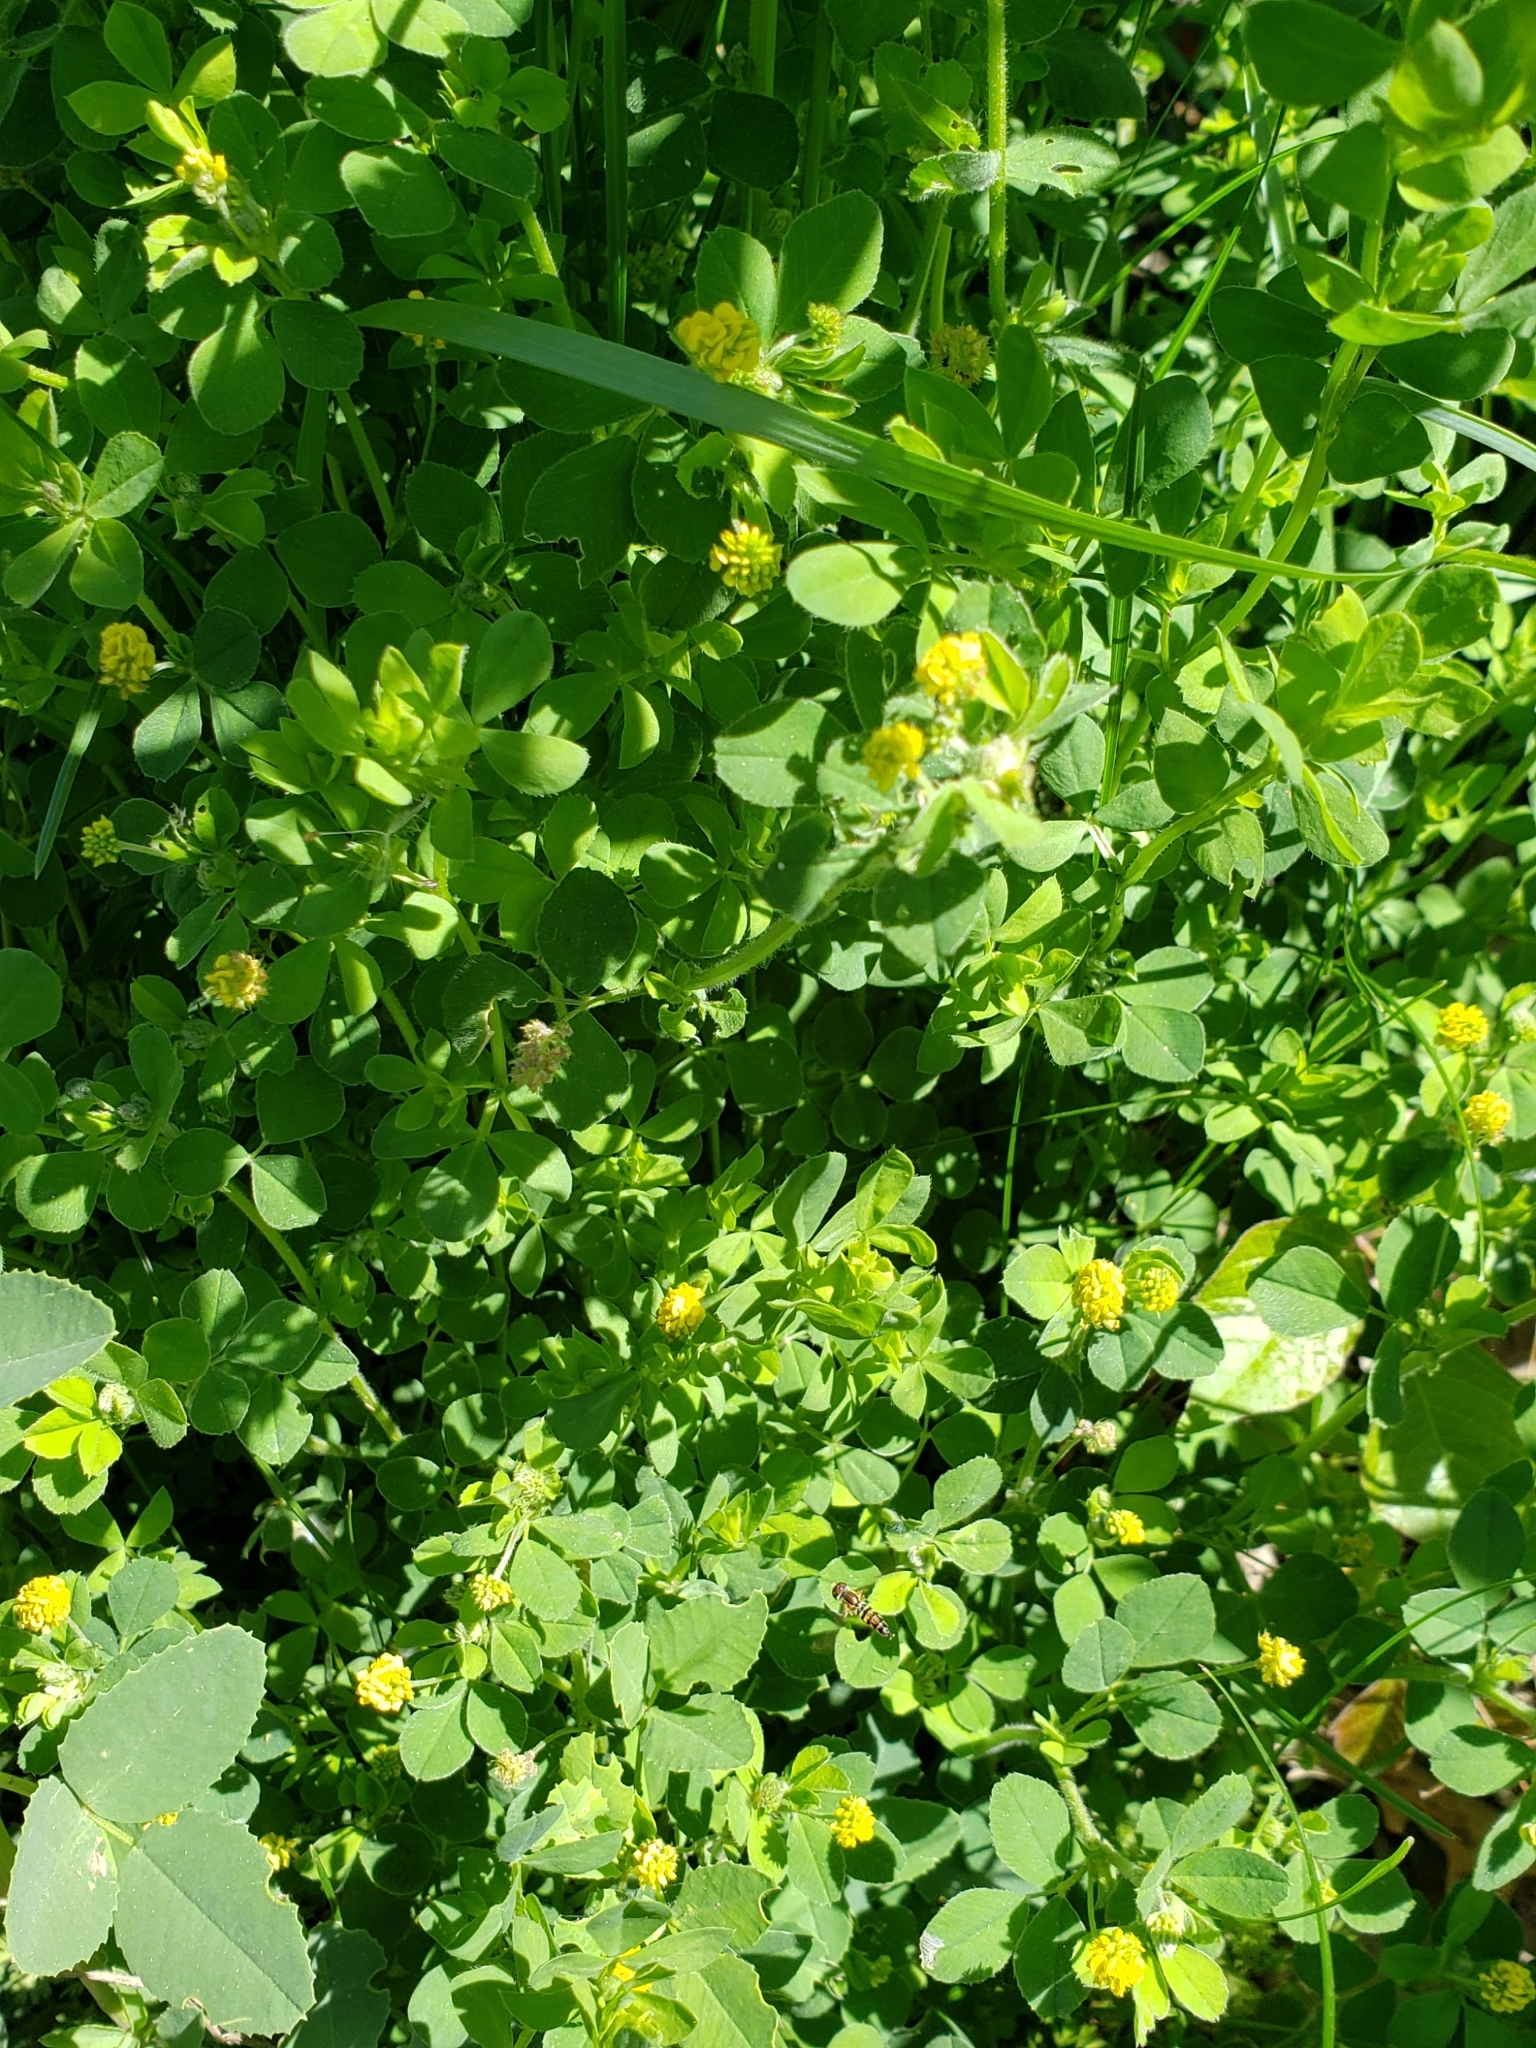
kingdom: Plantae
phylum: Tracheophyta
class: Magnoliopsida
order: Fabales
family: Fabaceae
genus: Medicago
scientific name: Medicago lupulina
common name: Black medick
